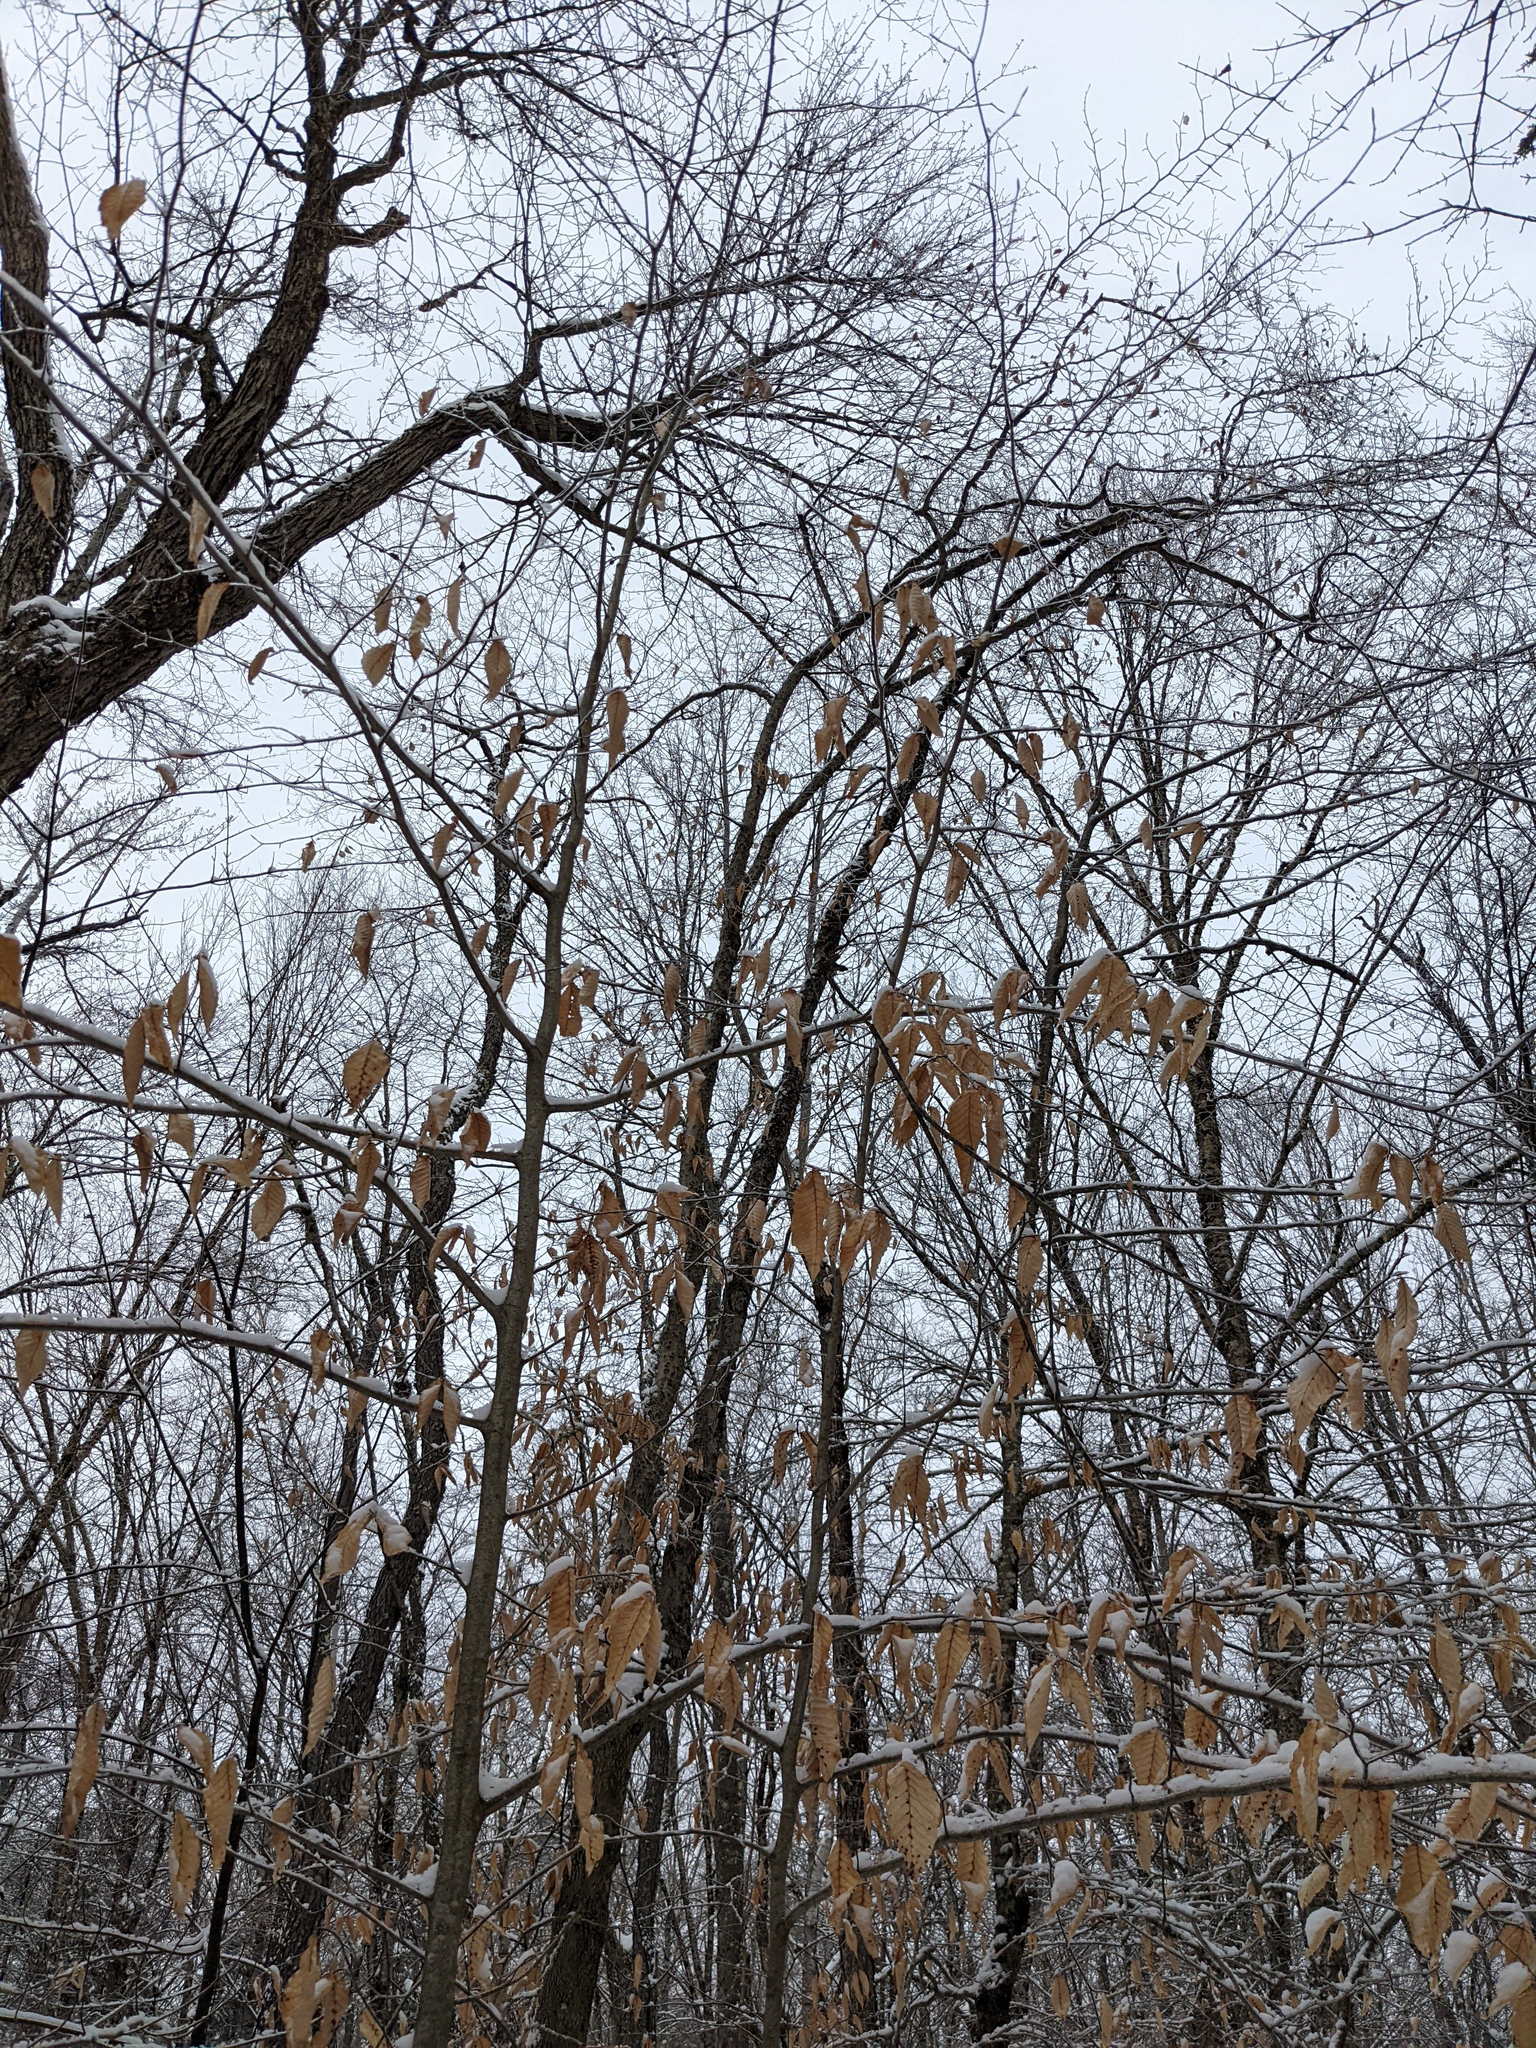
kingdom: Plantae
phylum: Tracheophyta
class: Magnoliopsida
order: Fagales
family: Fagaceae
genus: Fagus
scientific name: Fagus grandifolia
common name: American beech
